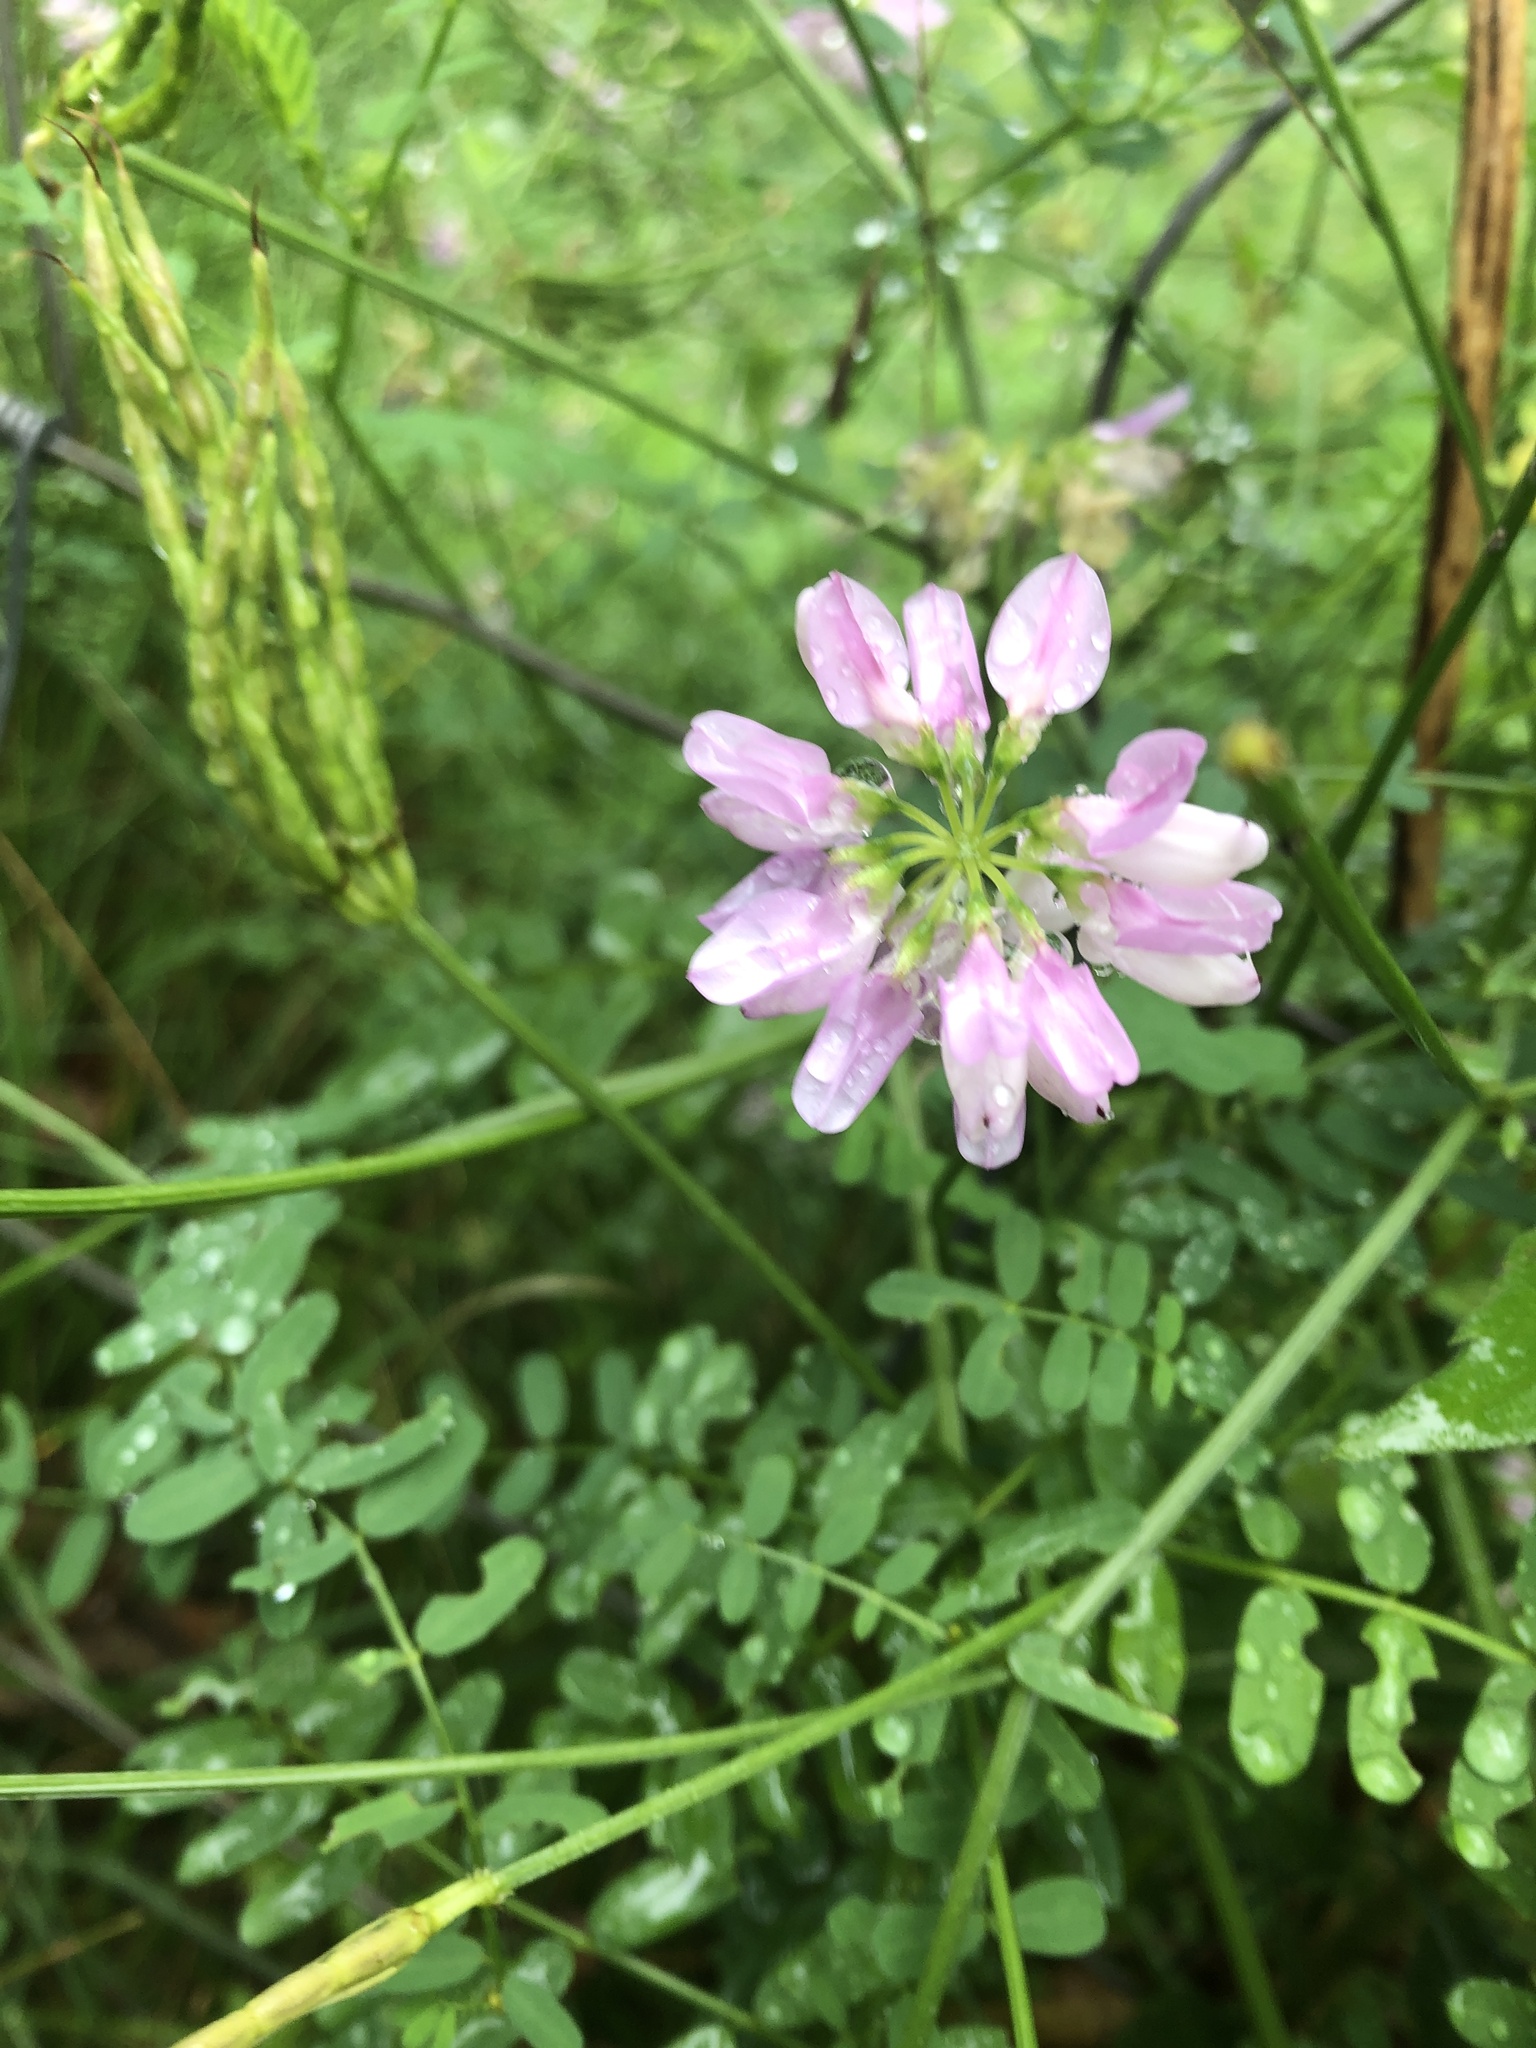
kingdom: Plantae
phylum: Tracheophyta
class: Magnoliopsida
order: Fabales
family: Fabaceae
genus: Coronilla
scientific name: Coronilla varia
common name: Crownvetch
